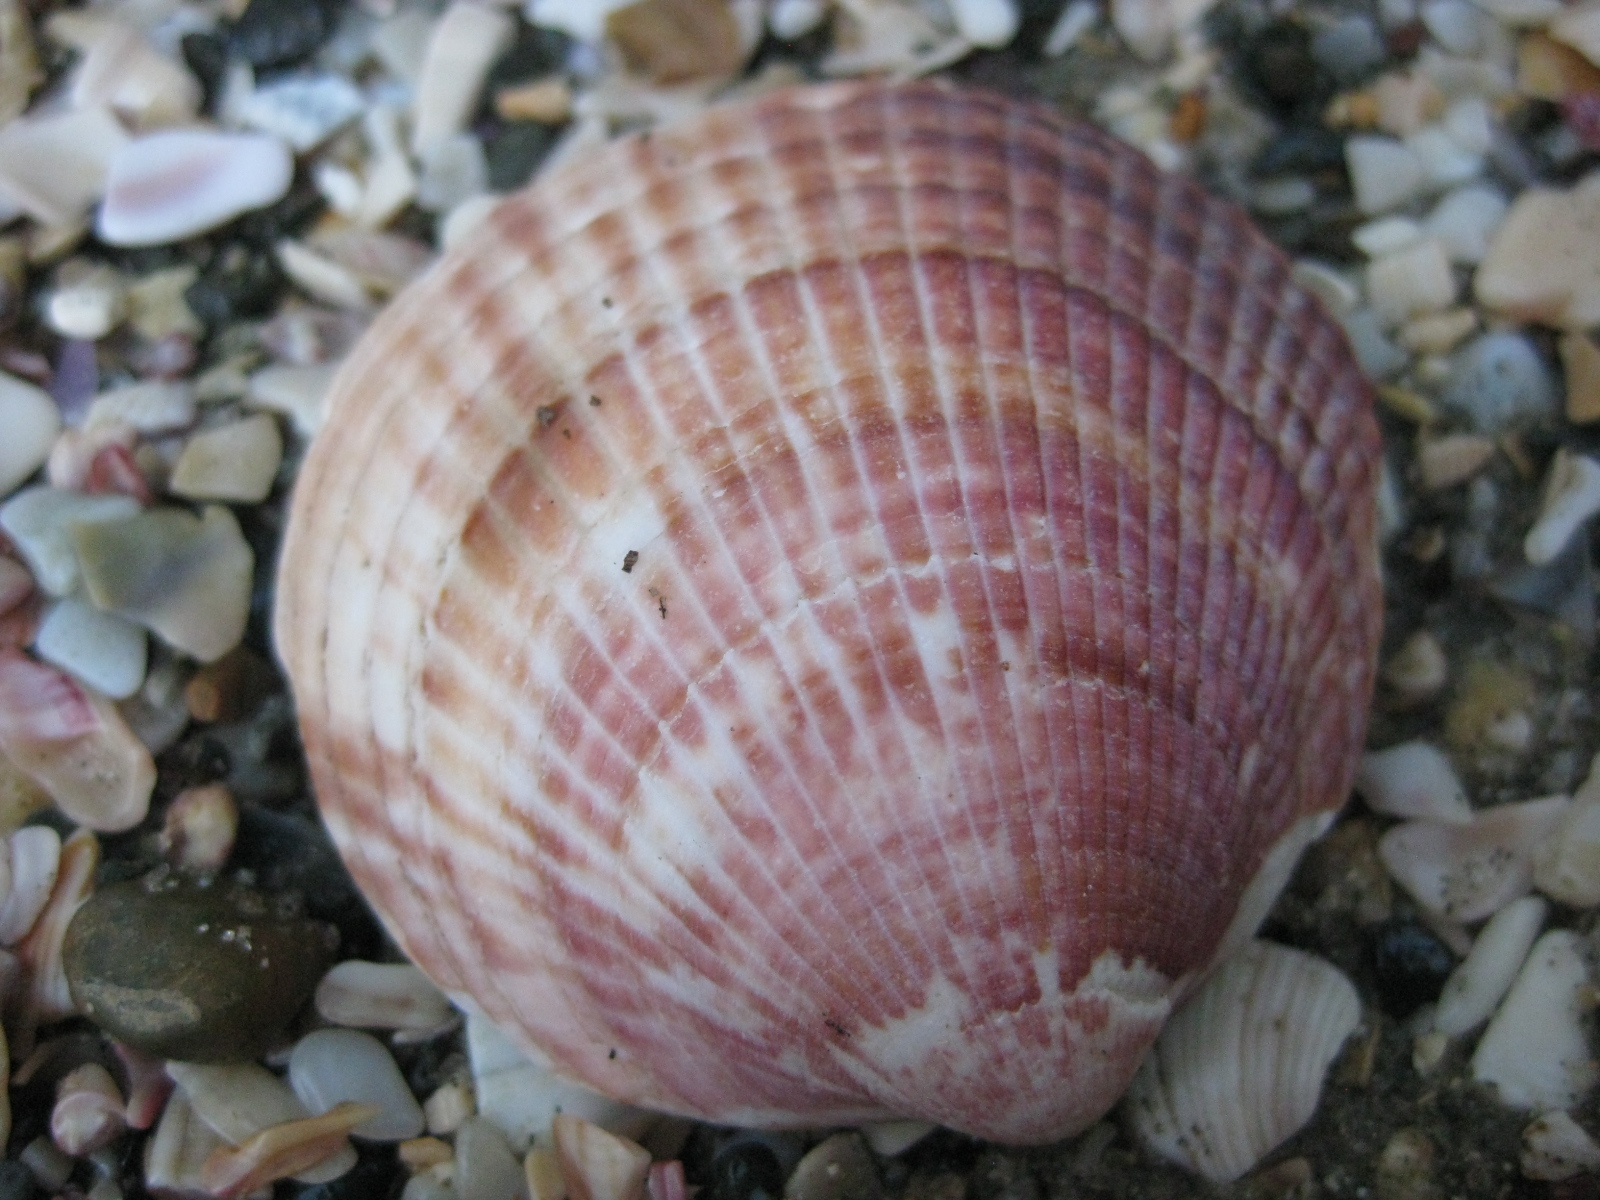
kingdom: Animalia
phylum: Mollusca
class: Bivalvia
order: Arcida
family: Glycymerididae
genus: Tucetona
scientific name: Tucetona laticostata
